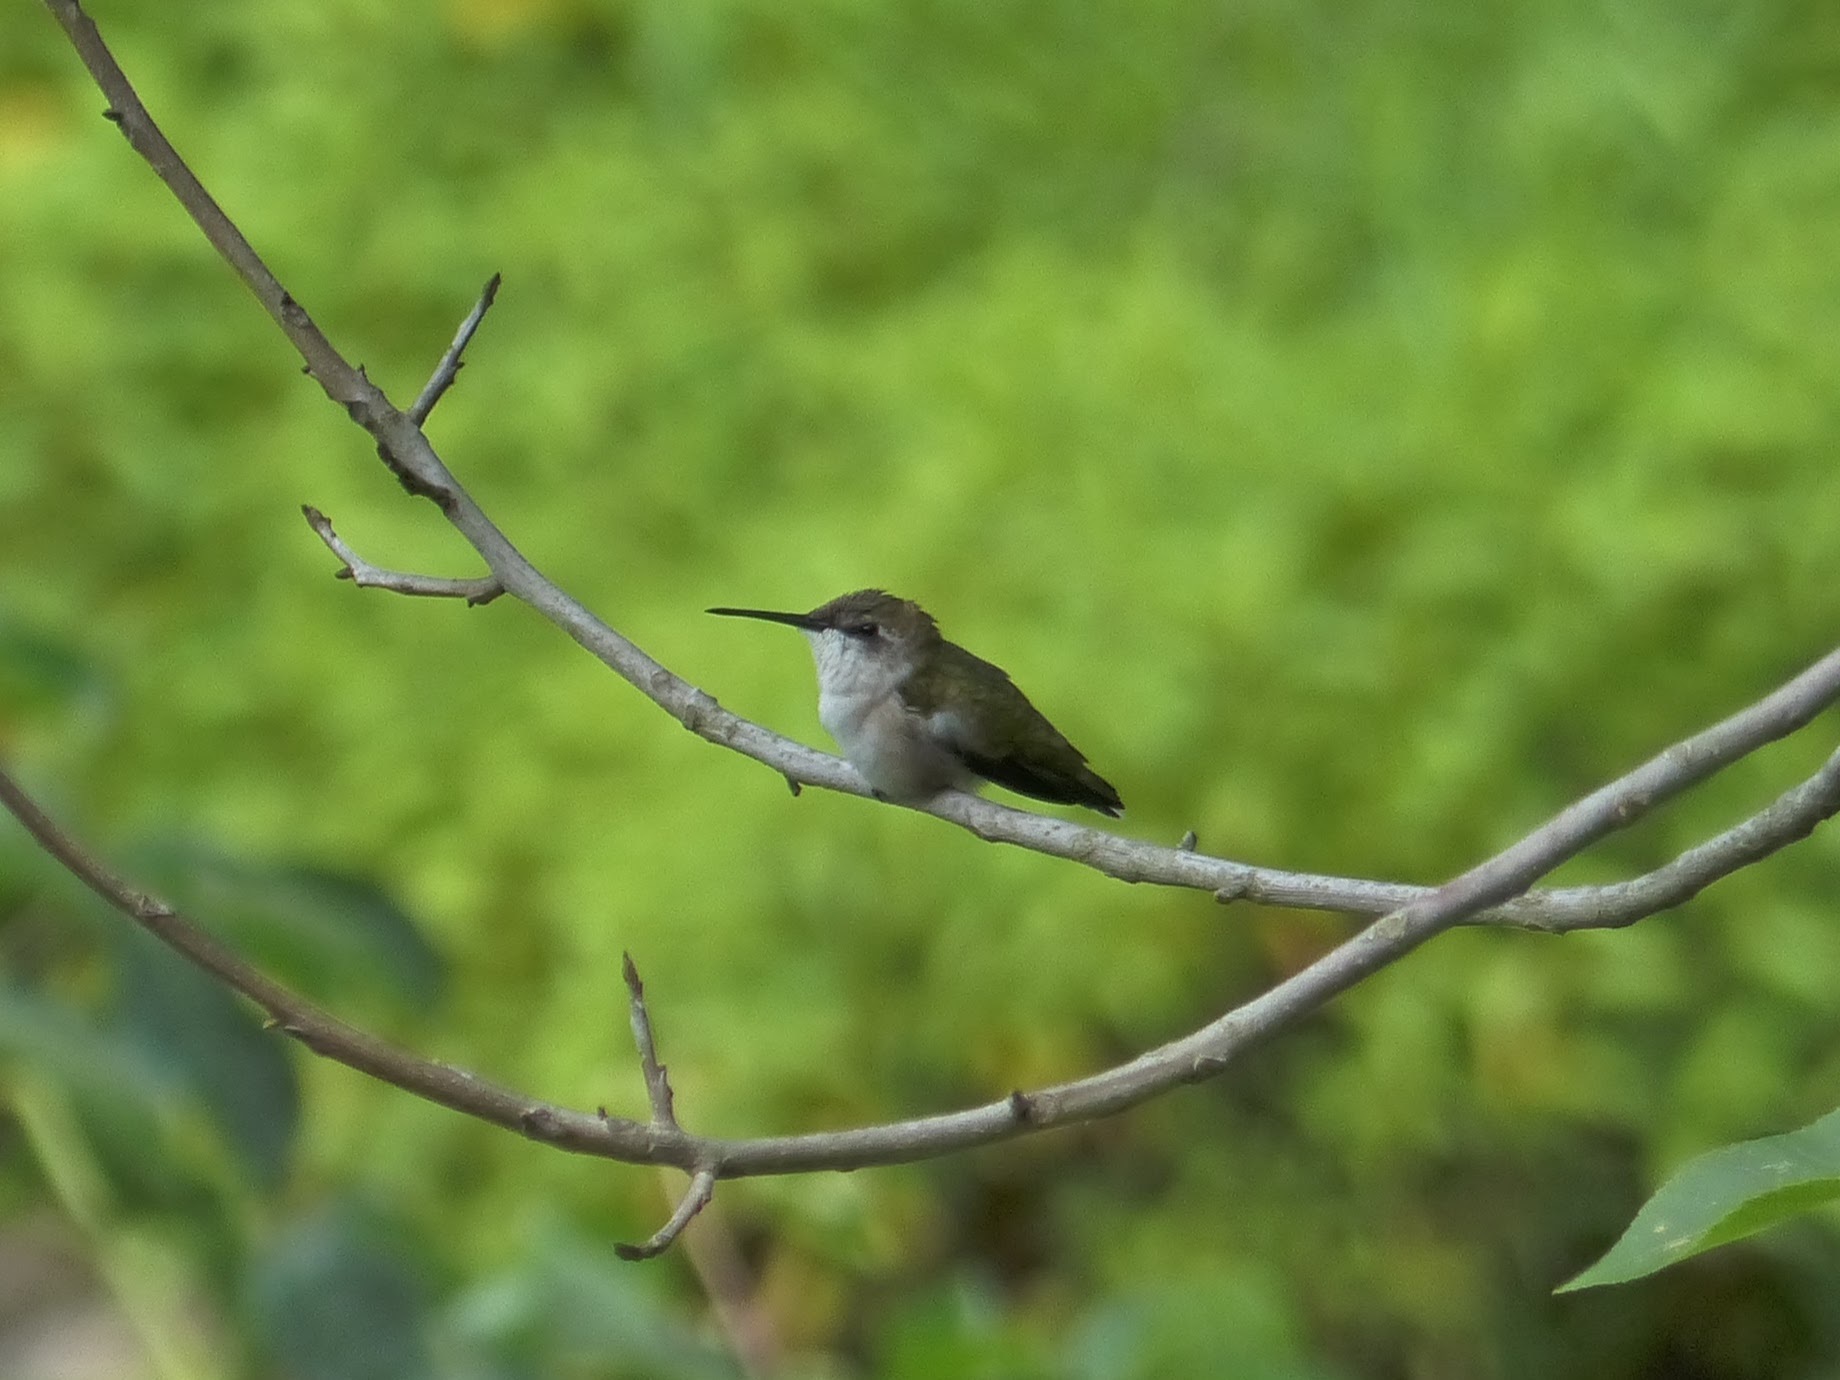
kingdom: Animalia
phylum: Chordata
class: Aves
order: Apodiformes
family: Trochilidae
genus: Archilochus
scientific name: Archilochus colubris
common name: Ruby-throated hummingbird
